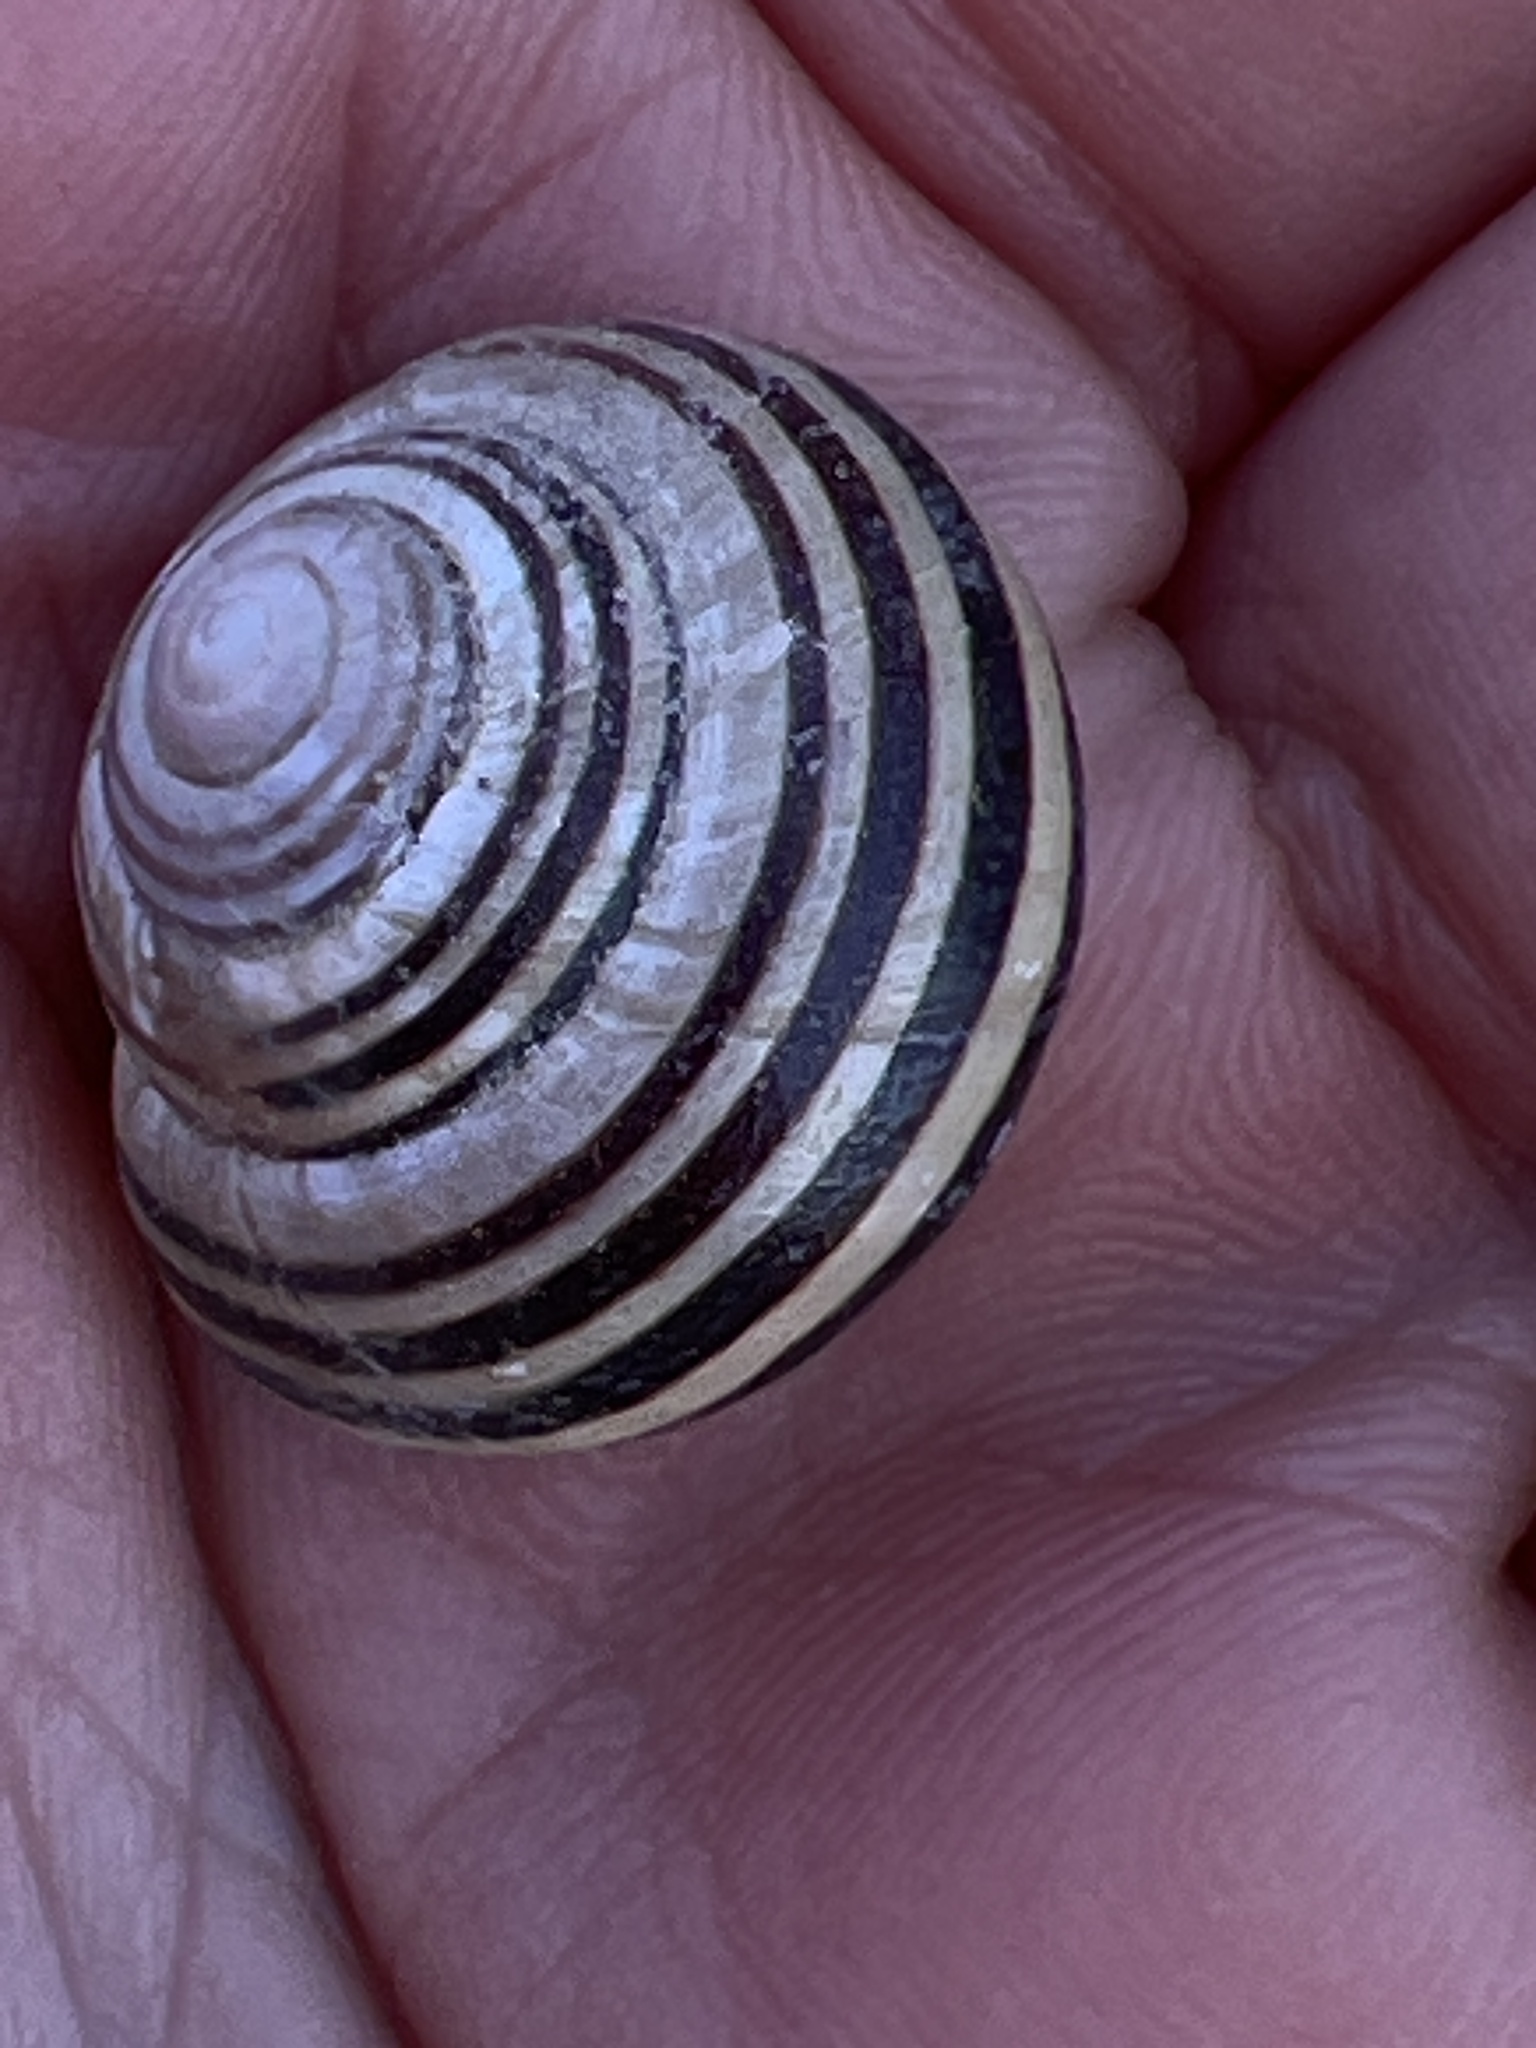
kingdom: Animalia
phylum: Mollusca
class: Gastropoda
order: Stylommatophora
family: Helicidae
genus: Cepaea
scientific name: Cepaea nemoralis
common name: Grovesnail
